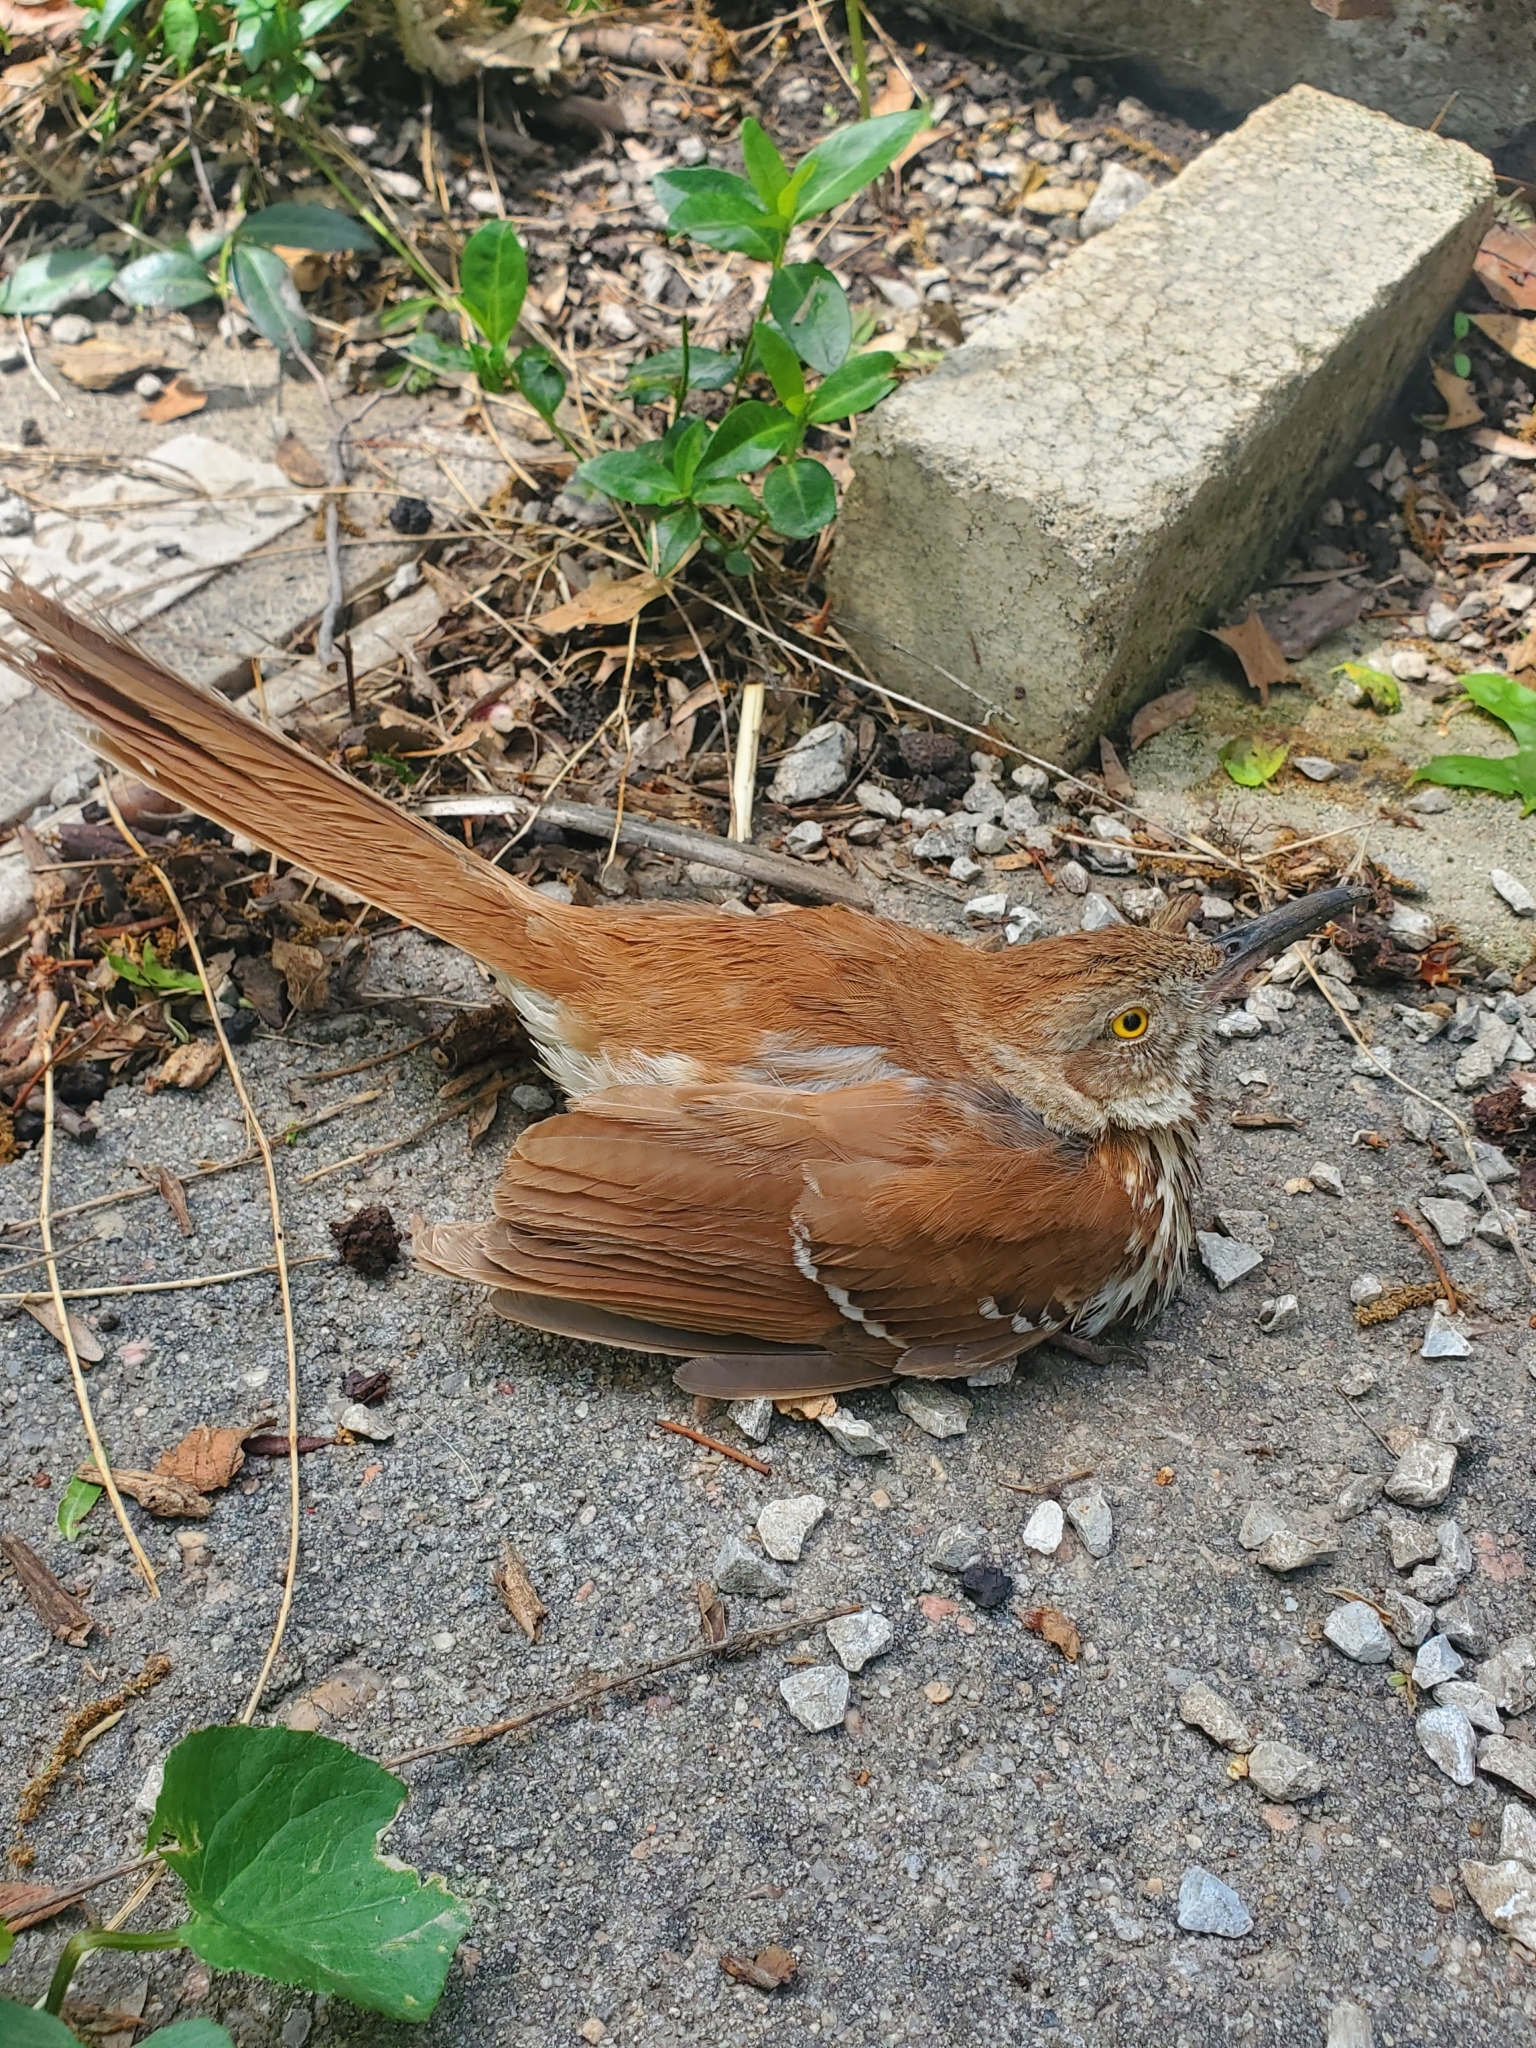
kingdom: Animalia
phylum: Chordata
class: Aves
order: Passeriformes
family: Mimidae
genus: Toxostoma
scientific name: Toxostoma rufum
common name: Brown thrasher
